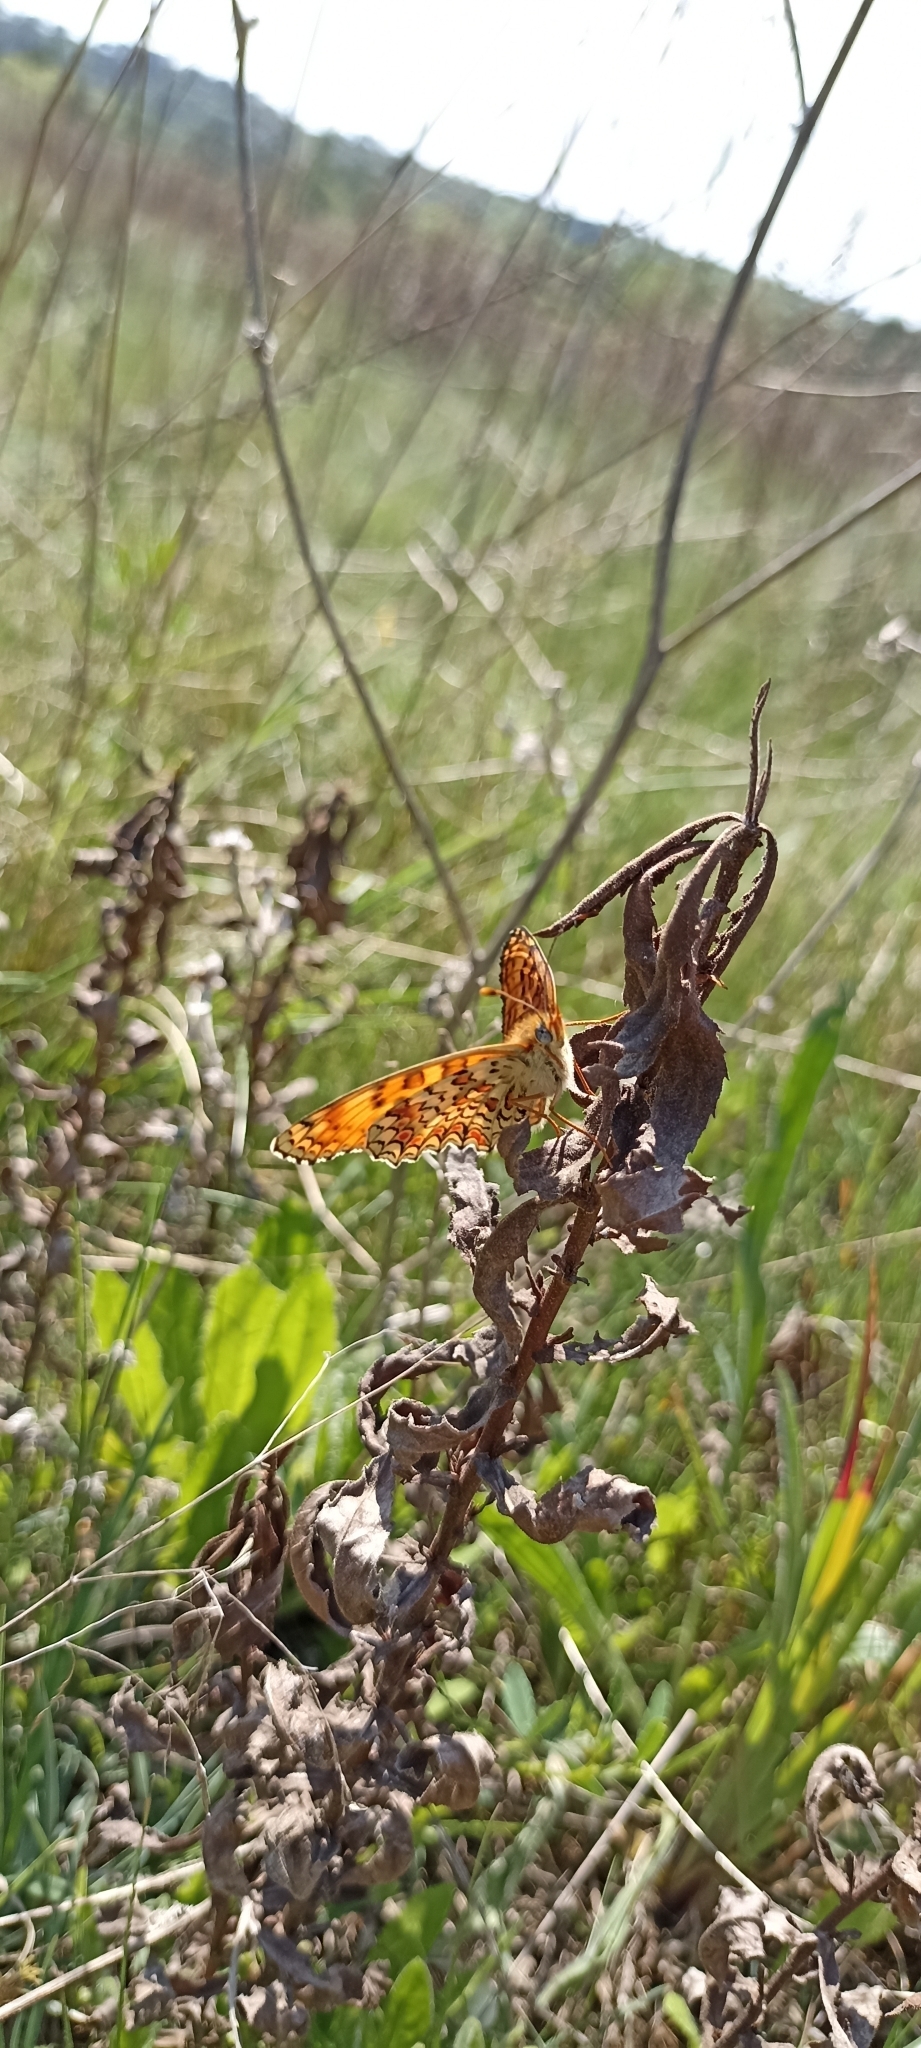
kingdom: Animalia
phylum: Arthropoda
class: Insecta
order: Lepidoptera
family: Nymphalidae
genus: Melitaea
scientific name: Melitaea phoebe
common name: Knapweed fritillary
